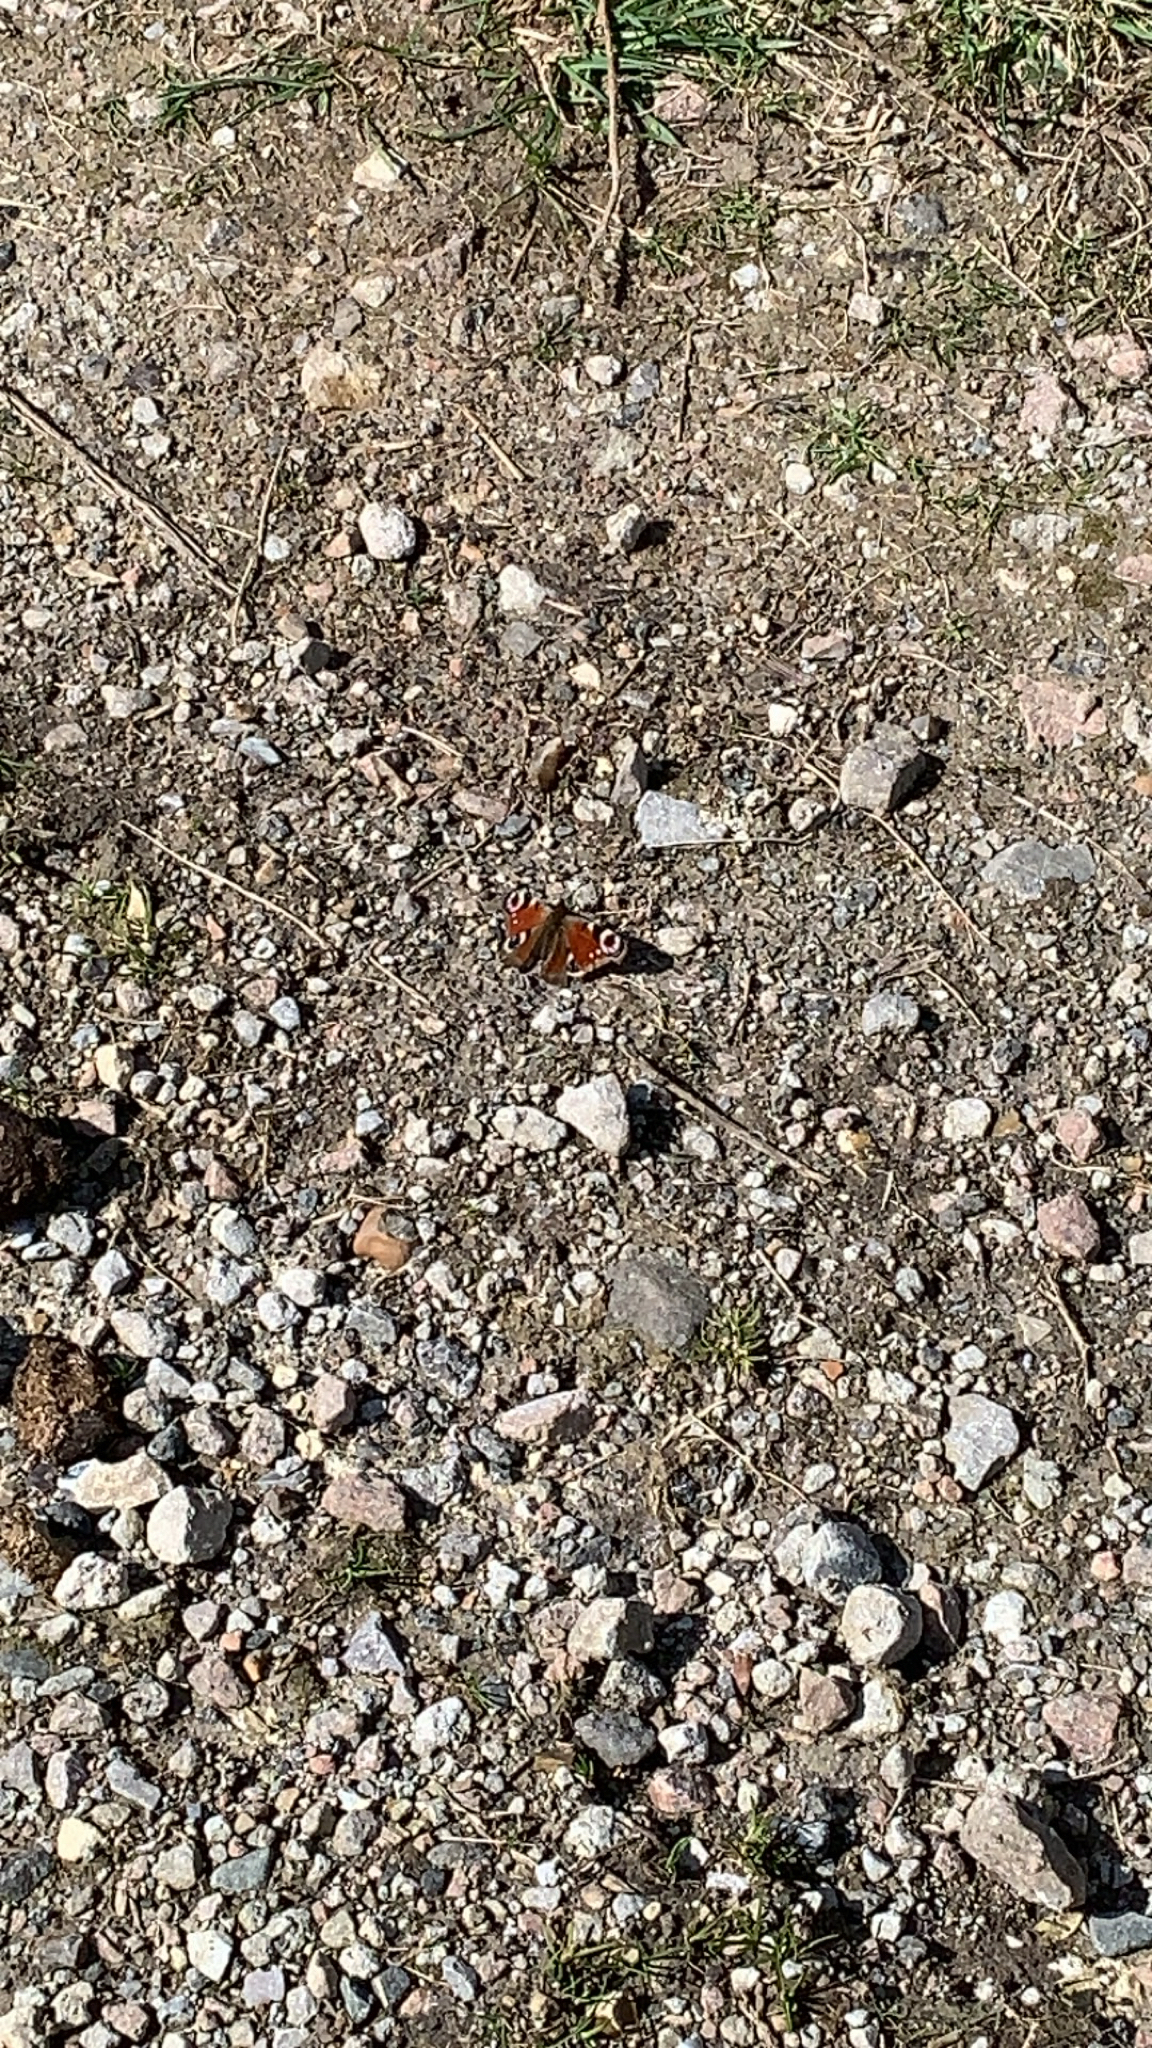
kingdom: Animalia
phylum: Arthropoda
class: Insecta
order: Lepidoptera
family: Nymphalidae
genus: Aglais
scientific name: Aglais io
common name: Peacock
